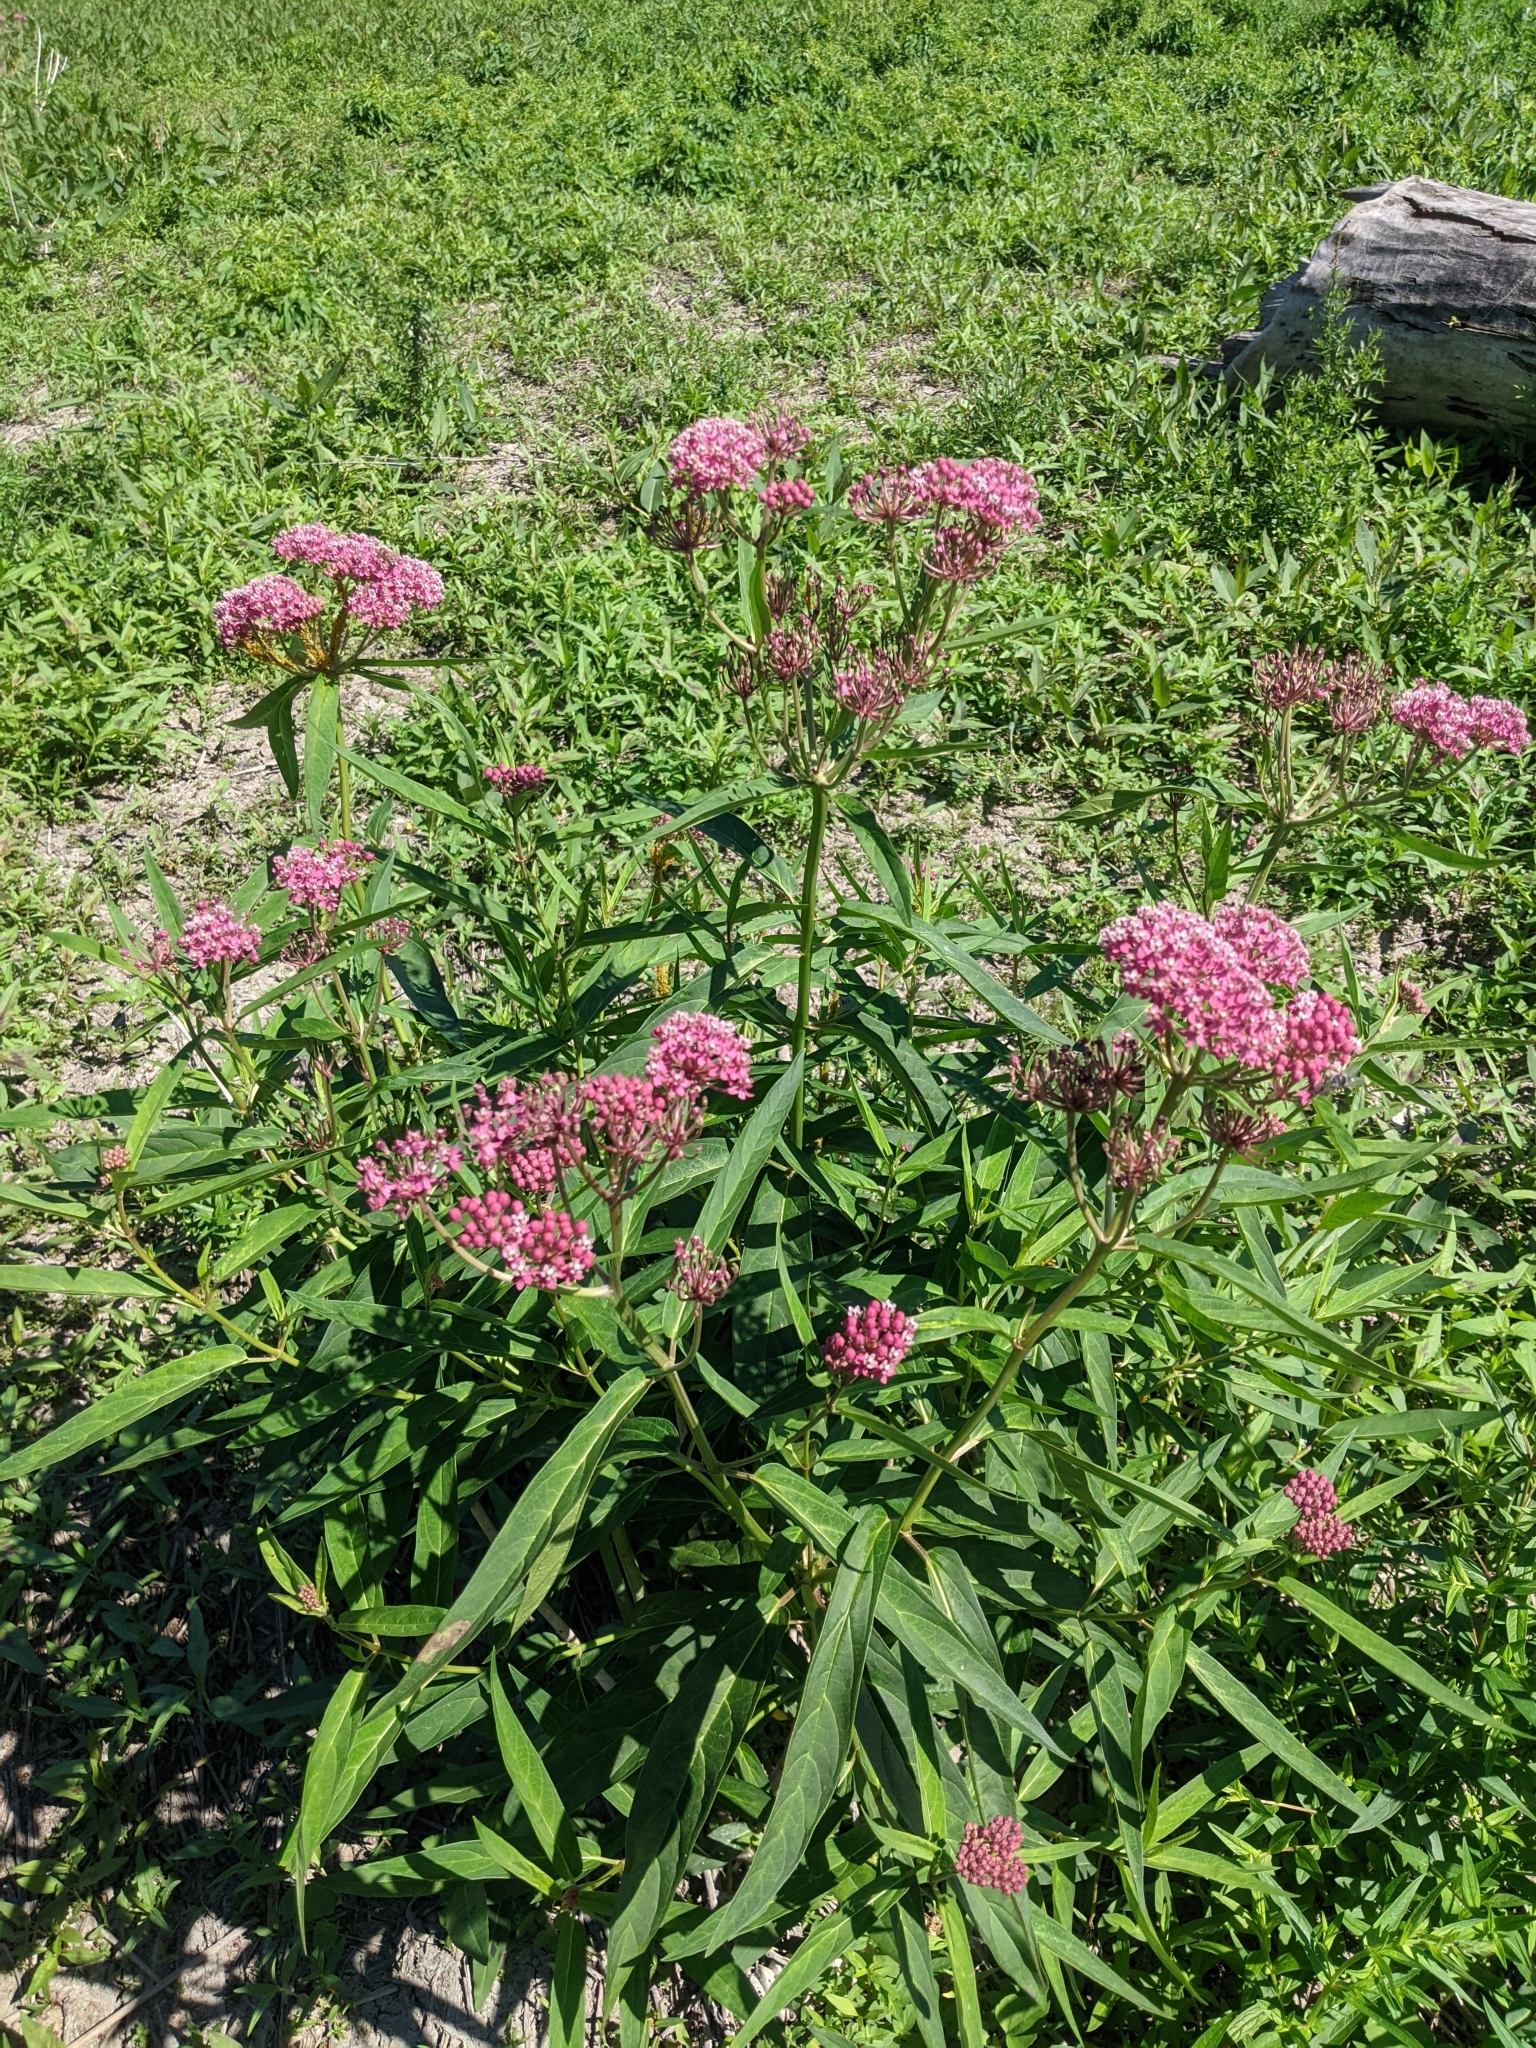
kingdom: Plantae
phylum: Tracheophyta
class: Magnoliopsida
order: Gentianales
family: Apocynaceae
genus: Asclepias
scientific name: Asclepias incarnata
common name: Swamp milkweed
